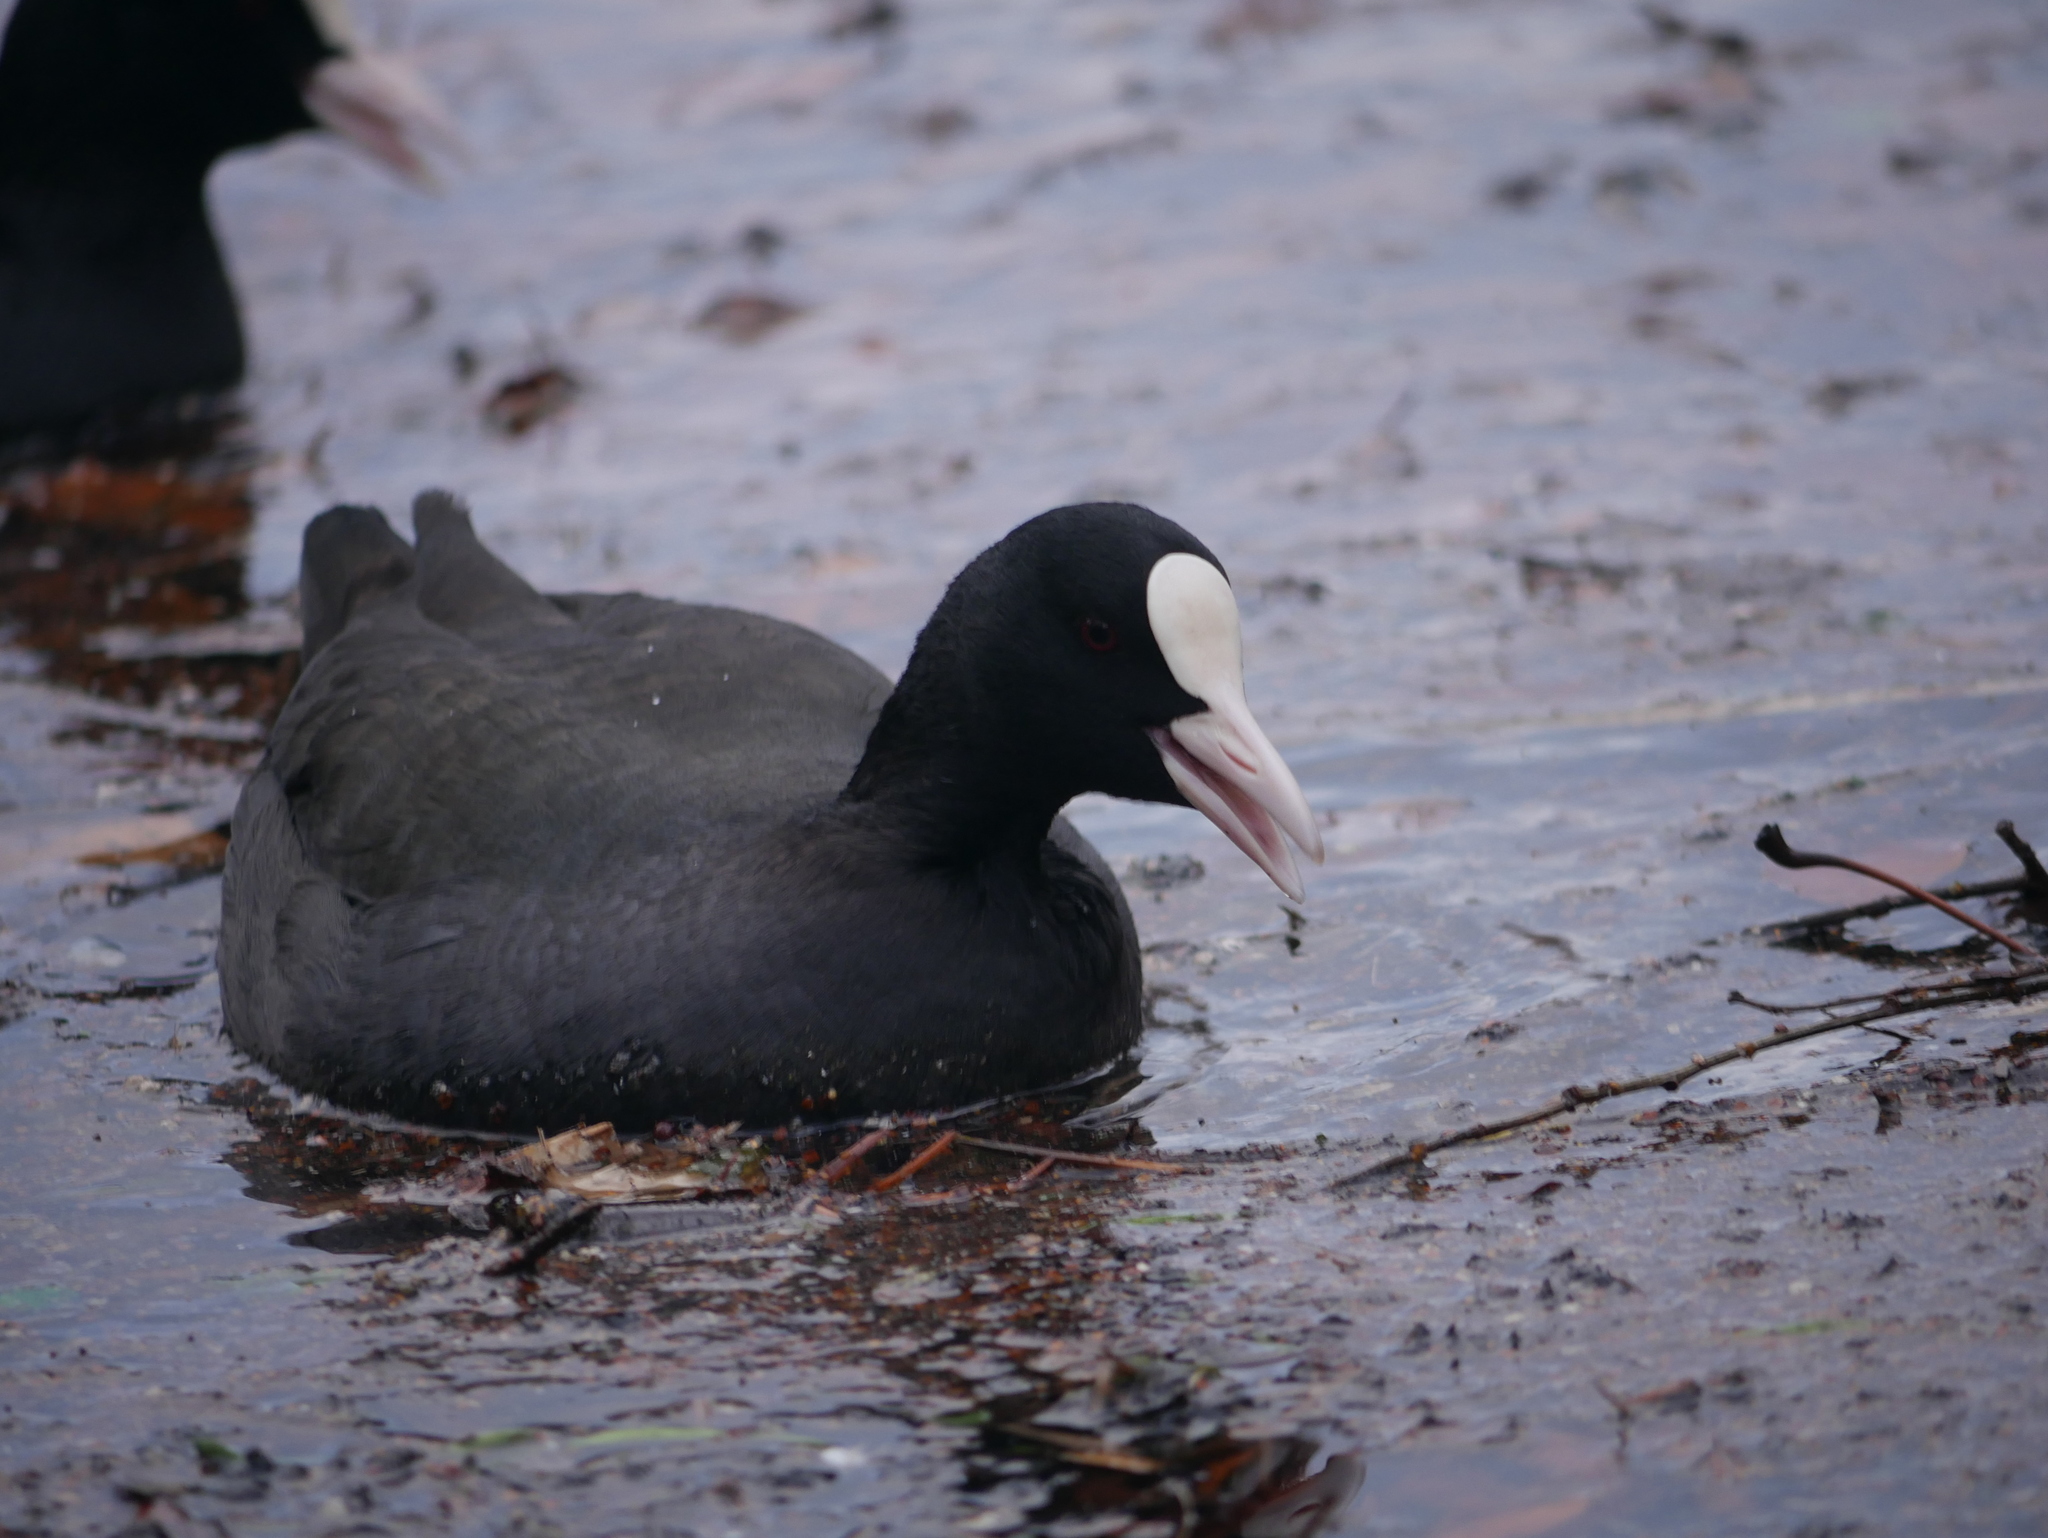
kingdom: Animalia
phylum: Chordata
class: Aves
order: Gruiformes
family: Rallidae
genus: Fulica
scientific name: Fulica atra
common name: Eurasian coot
